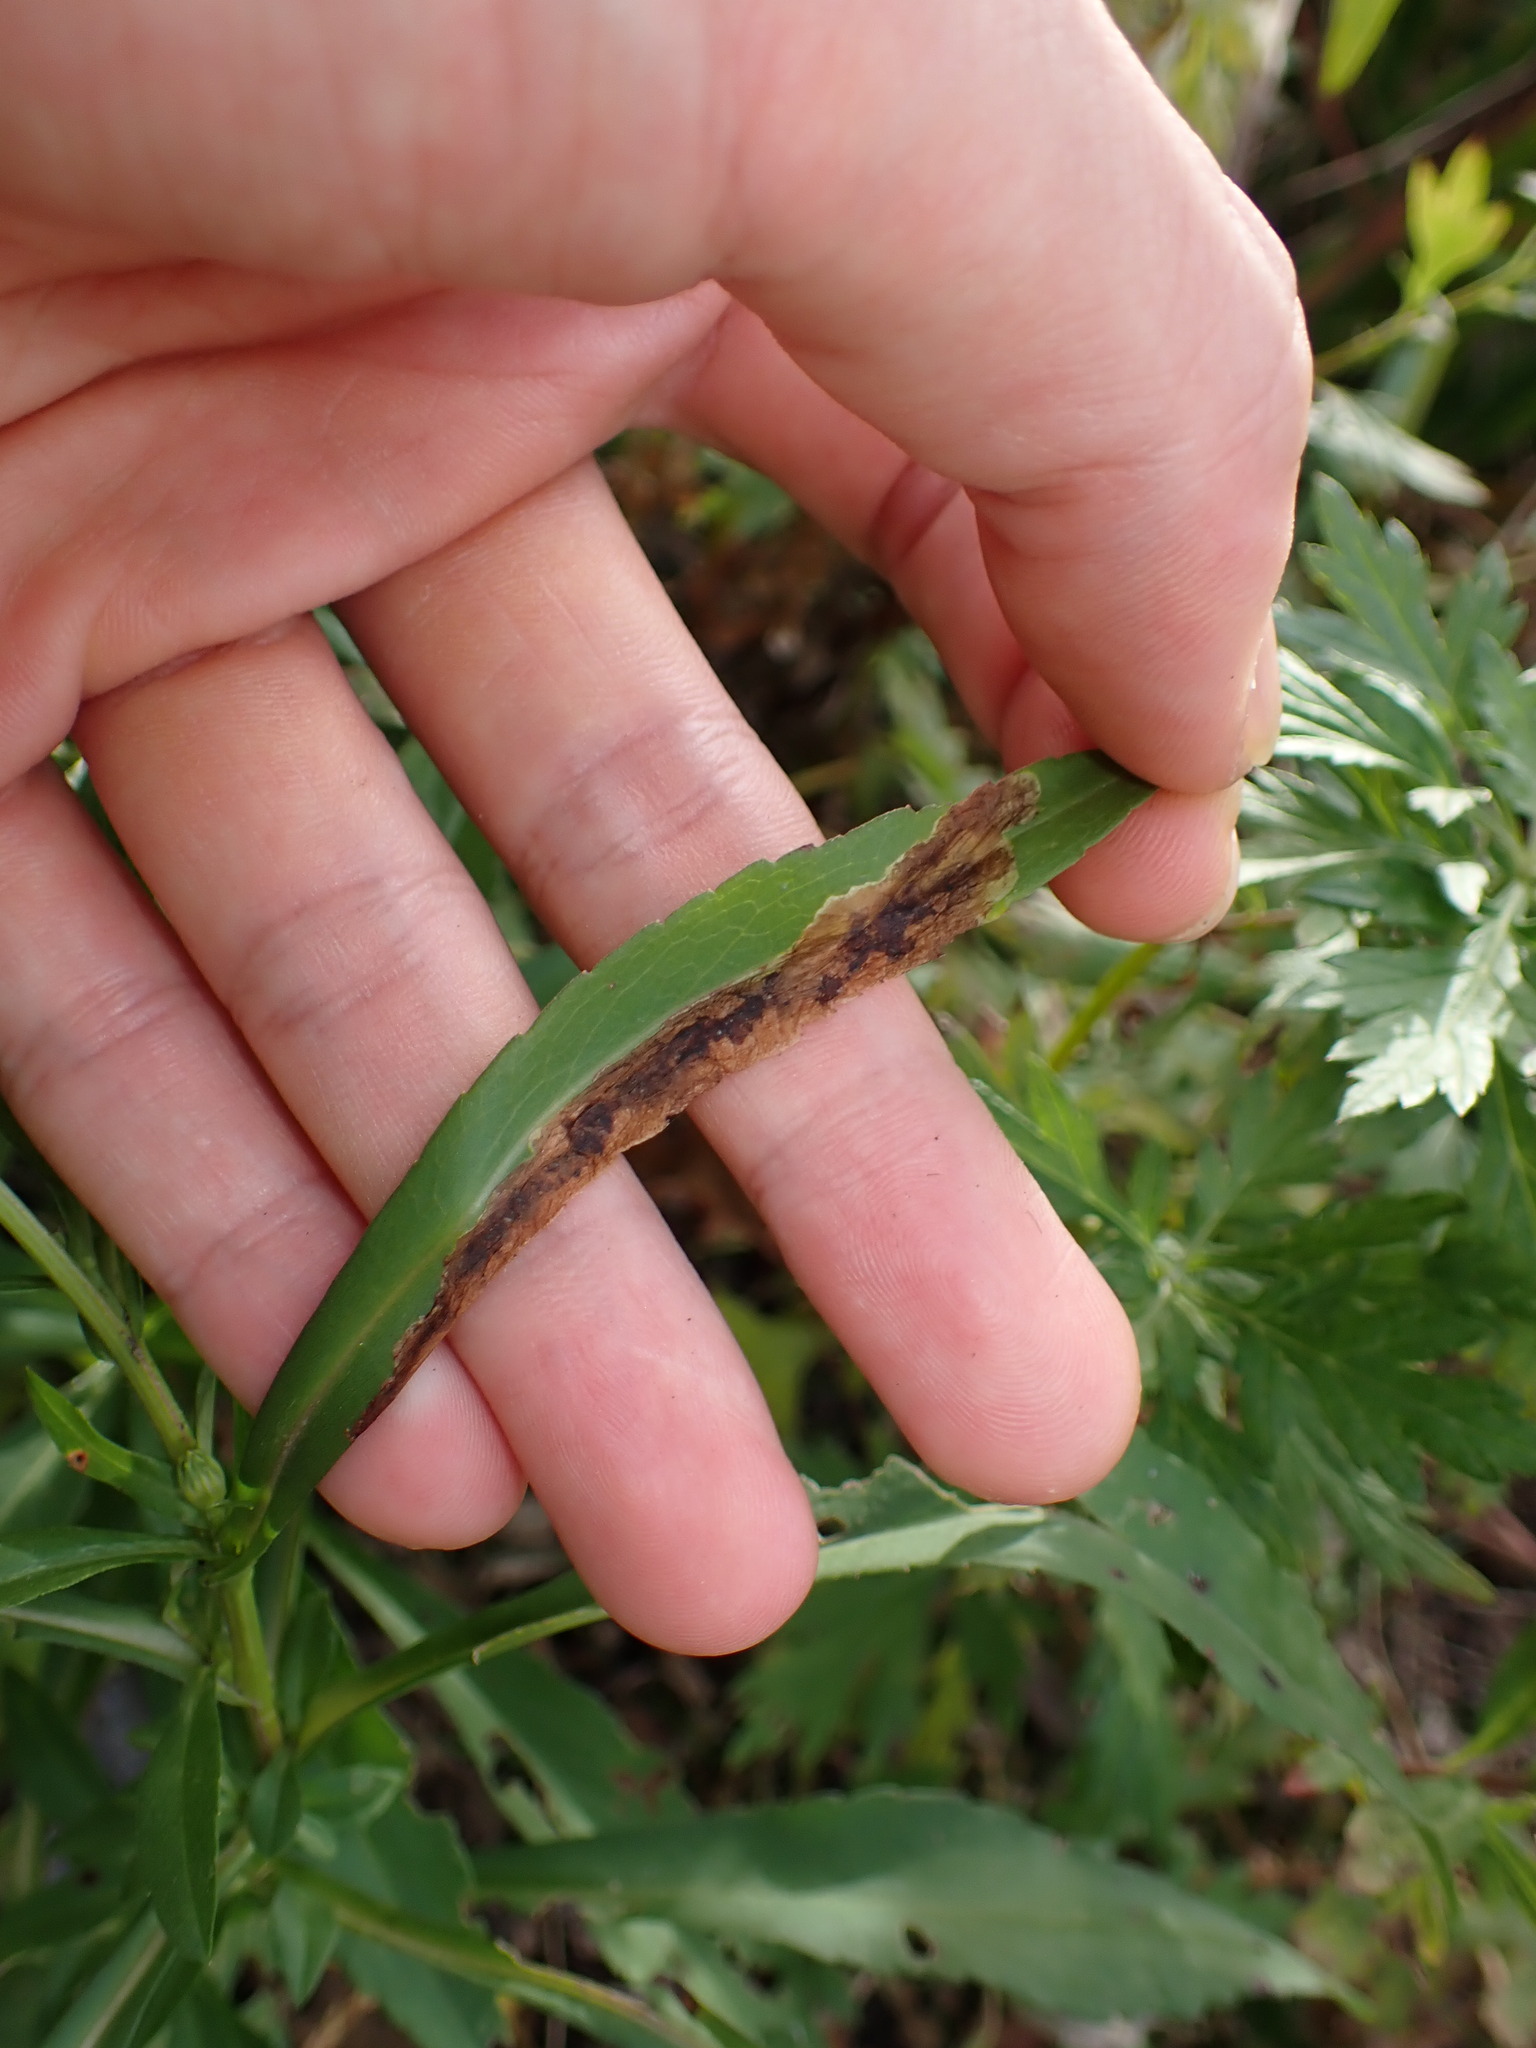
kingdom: Animalia
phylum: Arthropoda
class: Insecta
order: Diptera
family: Agromyzidae
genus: Nemorimyza
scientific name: Nemorimyza posticata
